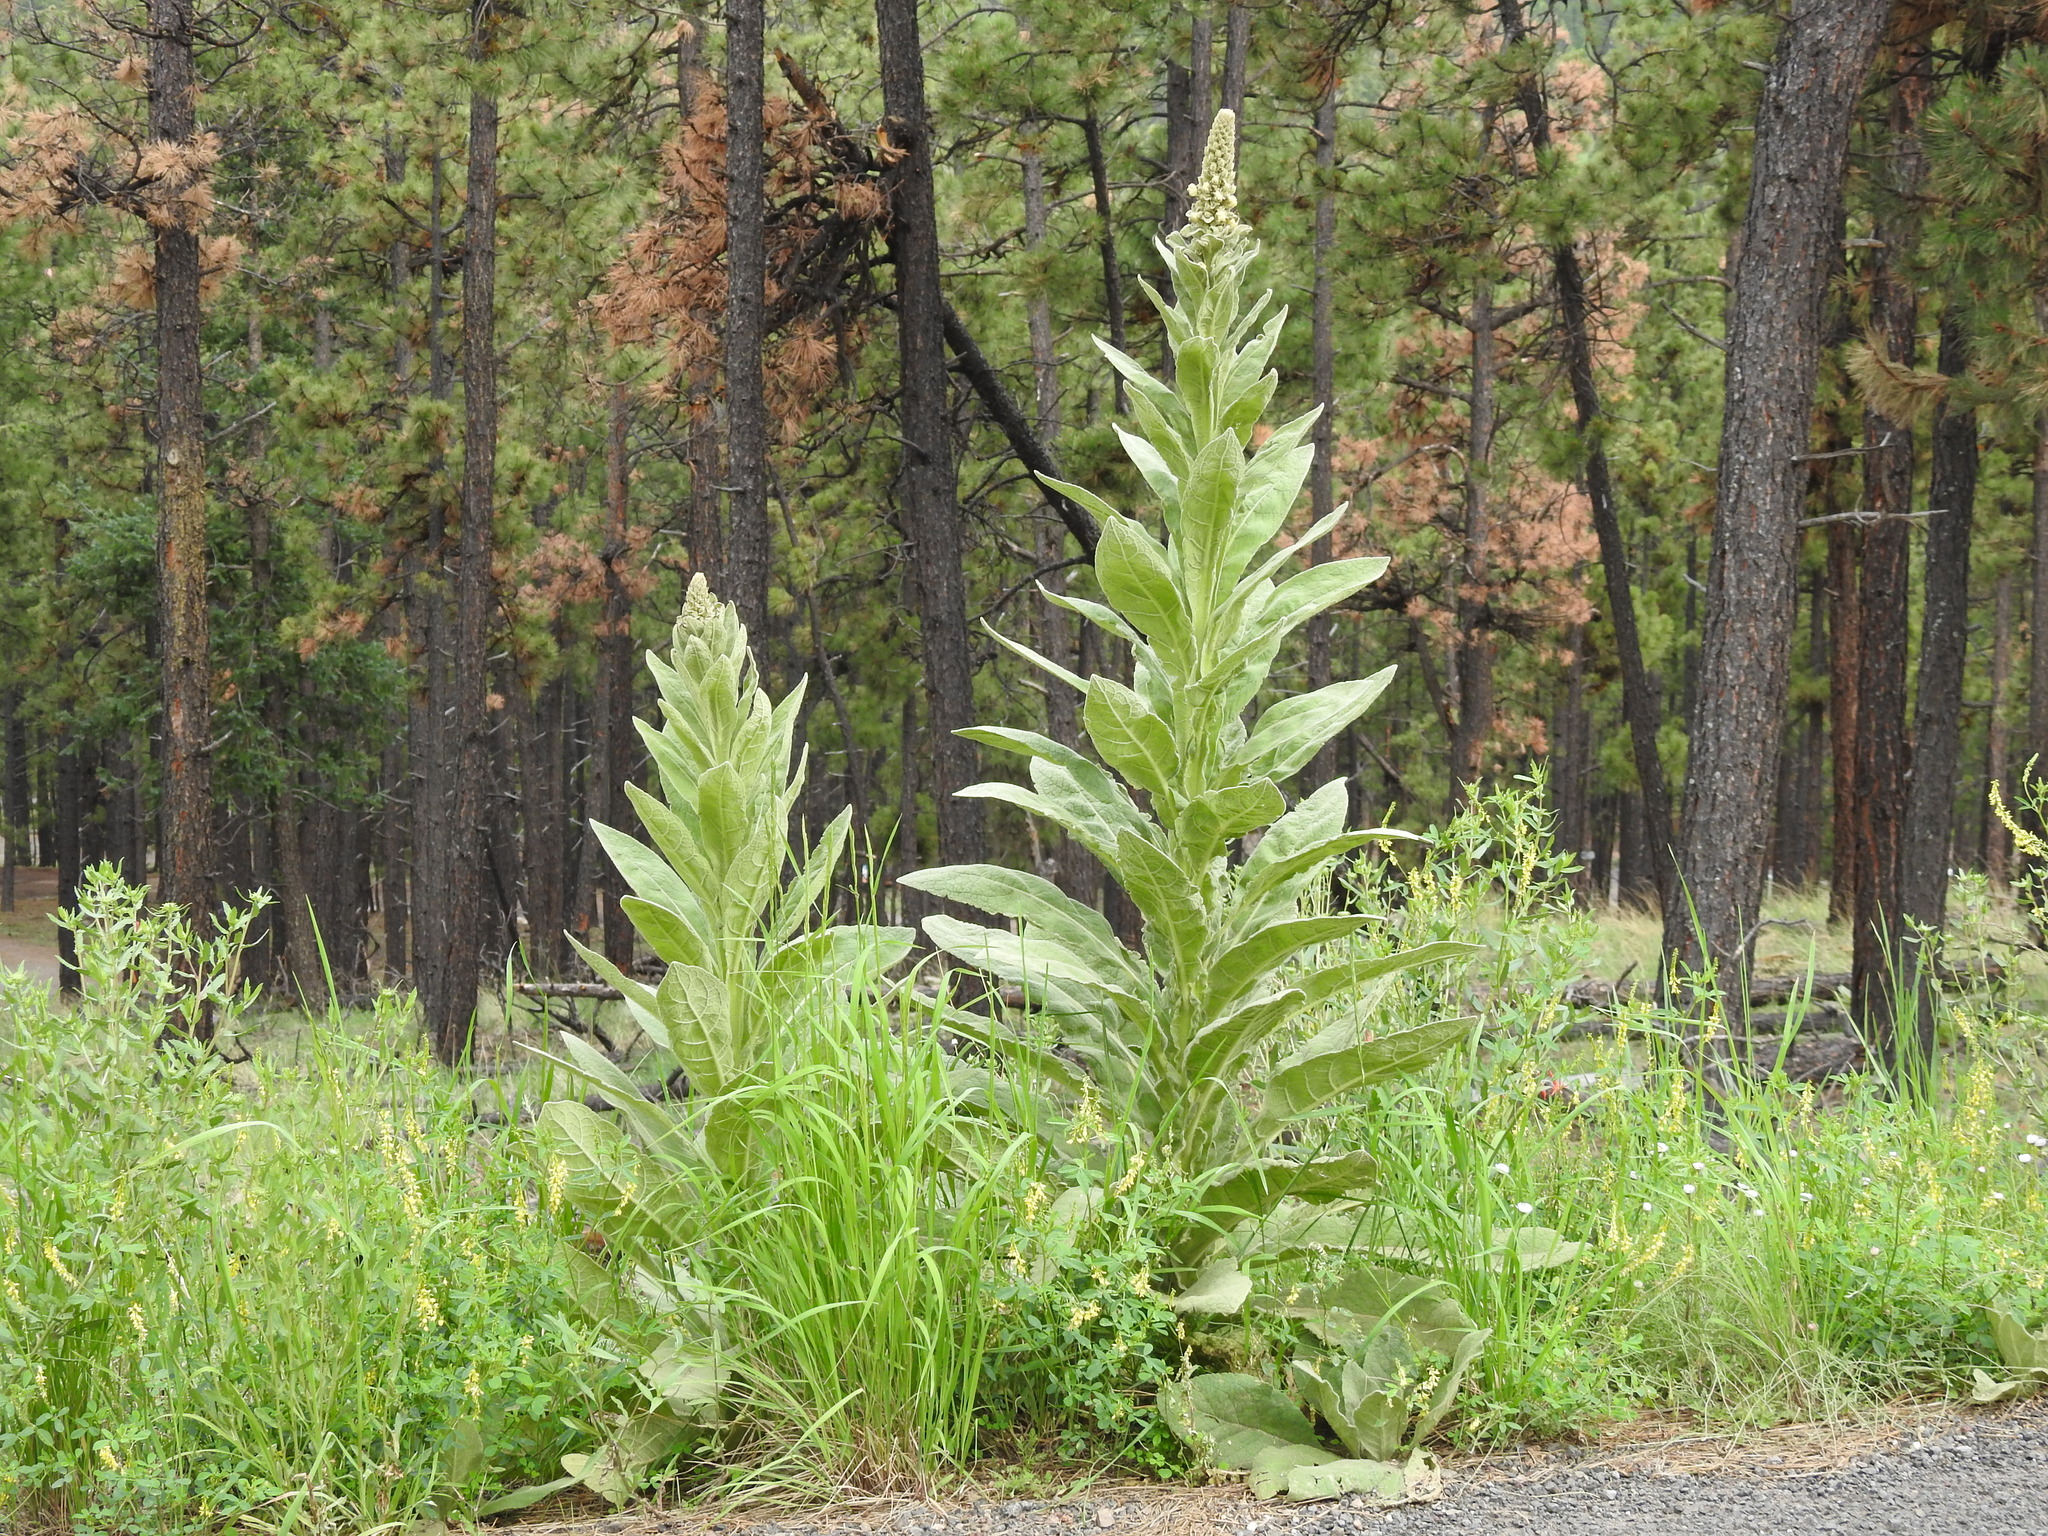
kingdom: Plantae
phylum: Tracheophyta
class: Magnoliopsida
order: Lamiales
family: Scrophulariaceae
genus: Verbascum
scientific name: Verbascum thapsus
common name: Common mullein
